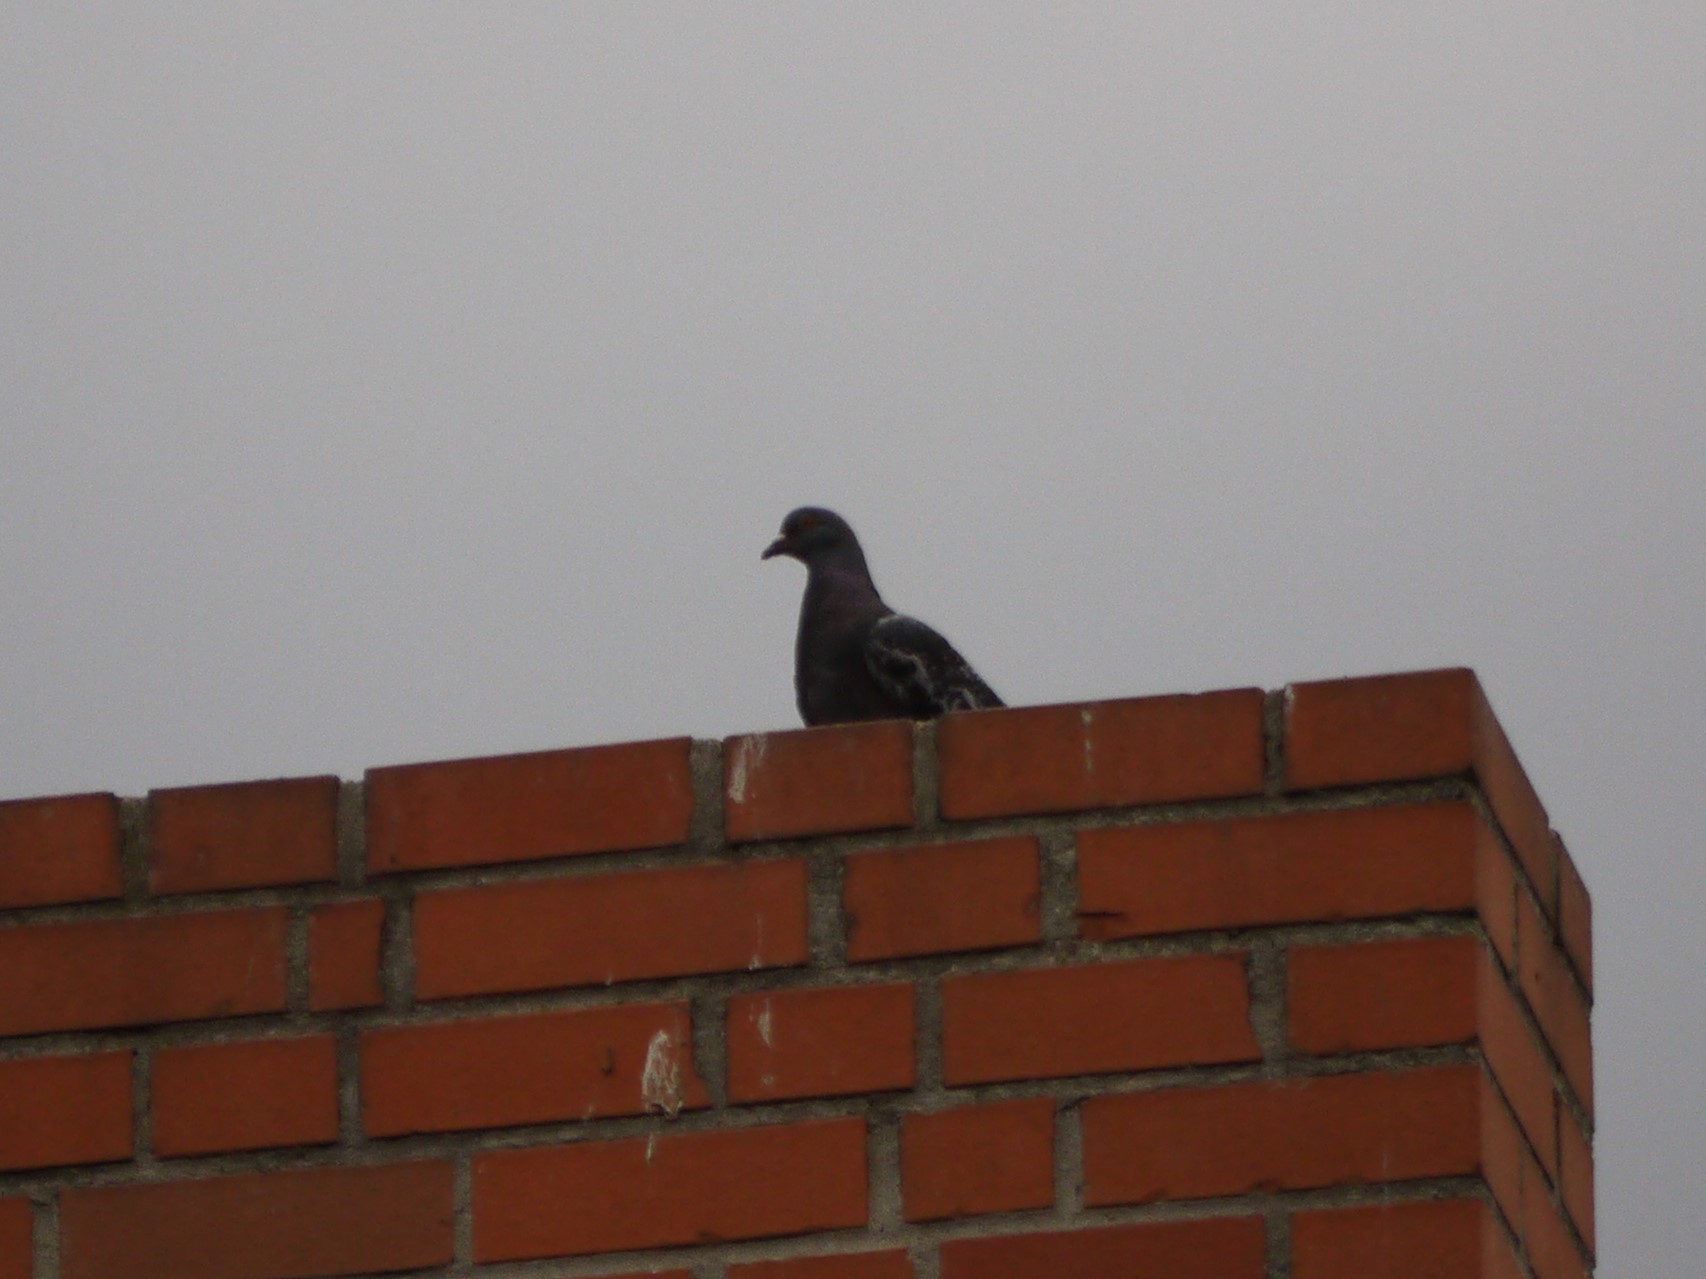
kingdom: Animalia
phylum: Chordata
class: Aves
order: Columbiformes
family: Columbidae
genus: Columba
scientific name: Columba livia
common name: Rock pigeon
